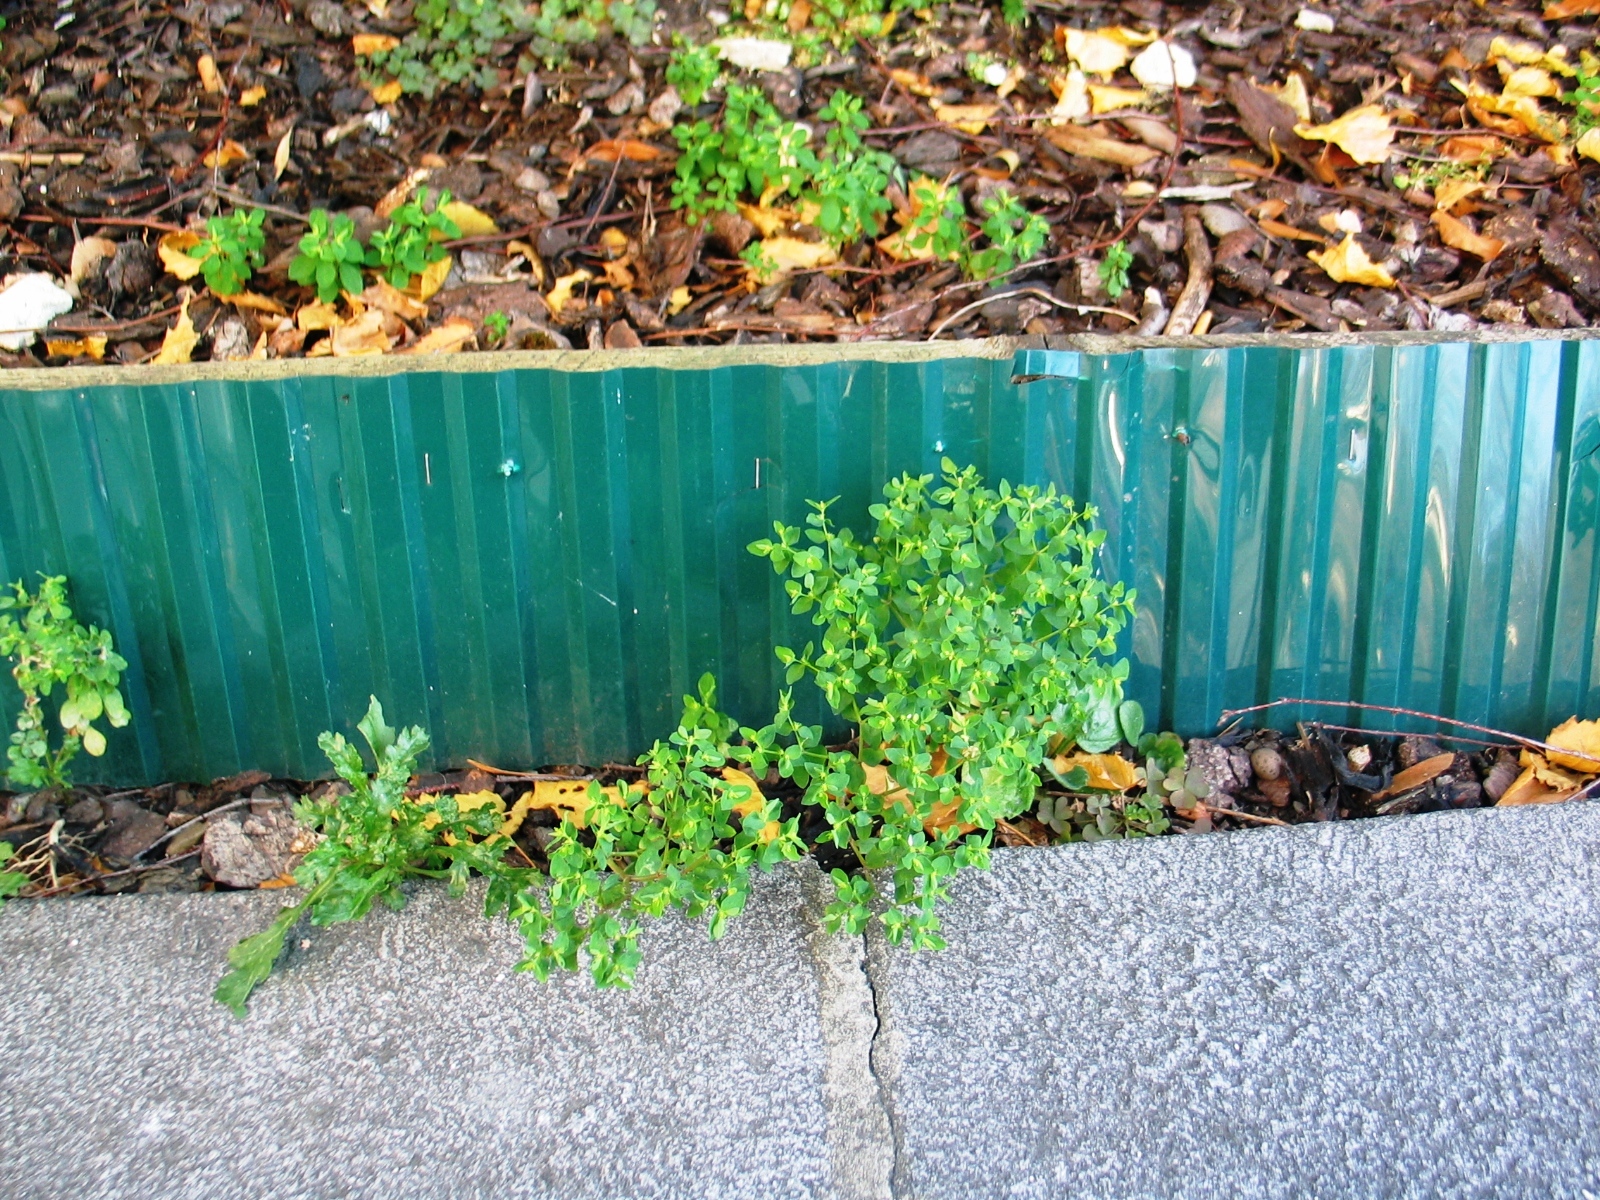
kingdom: Plantae
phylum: Tracheophyta
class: Magnoliopsida
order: Malpighiales
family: Euphorbiaceae
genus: Euphorbia
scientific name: Euphorbia peplus
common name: Petty spurge
